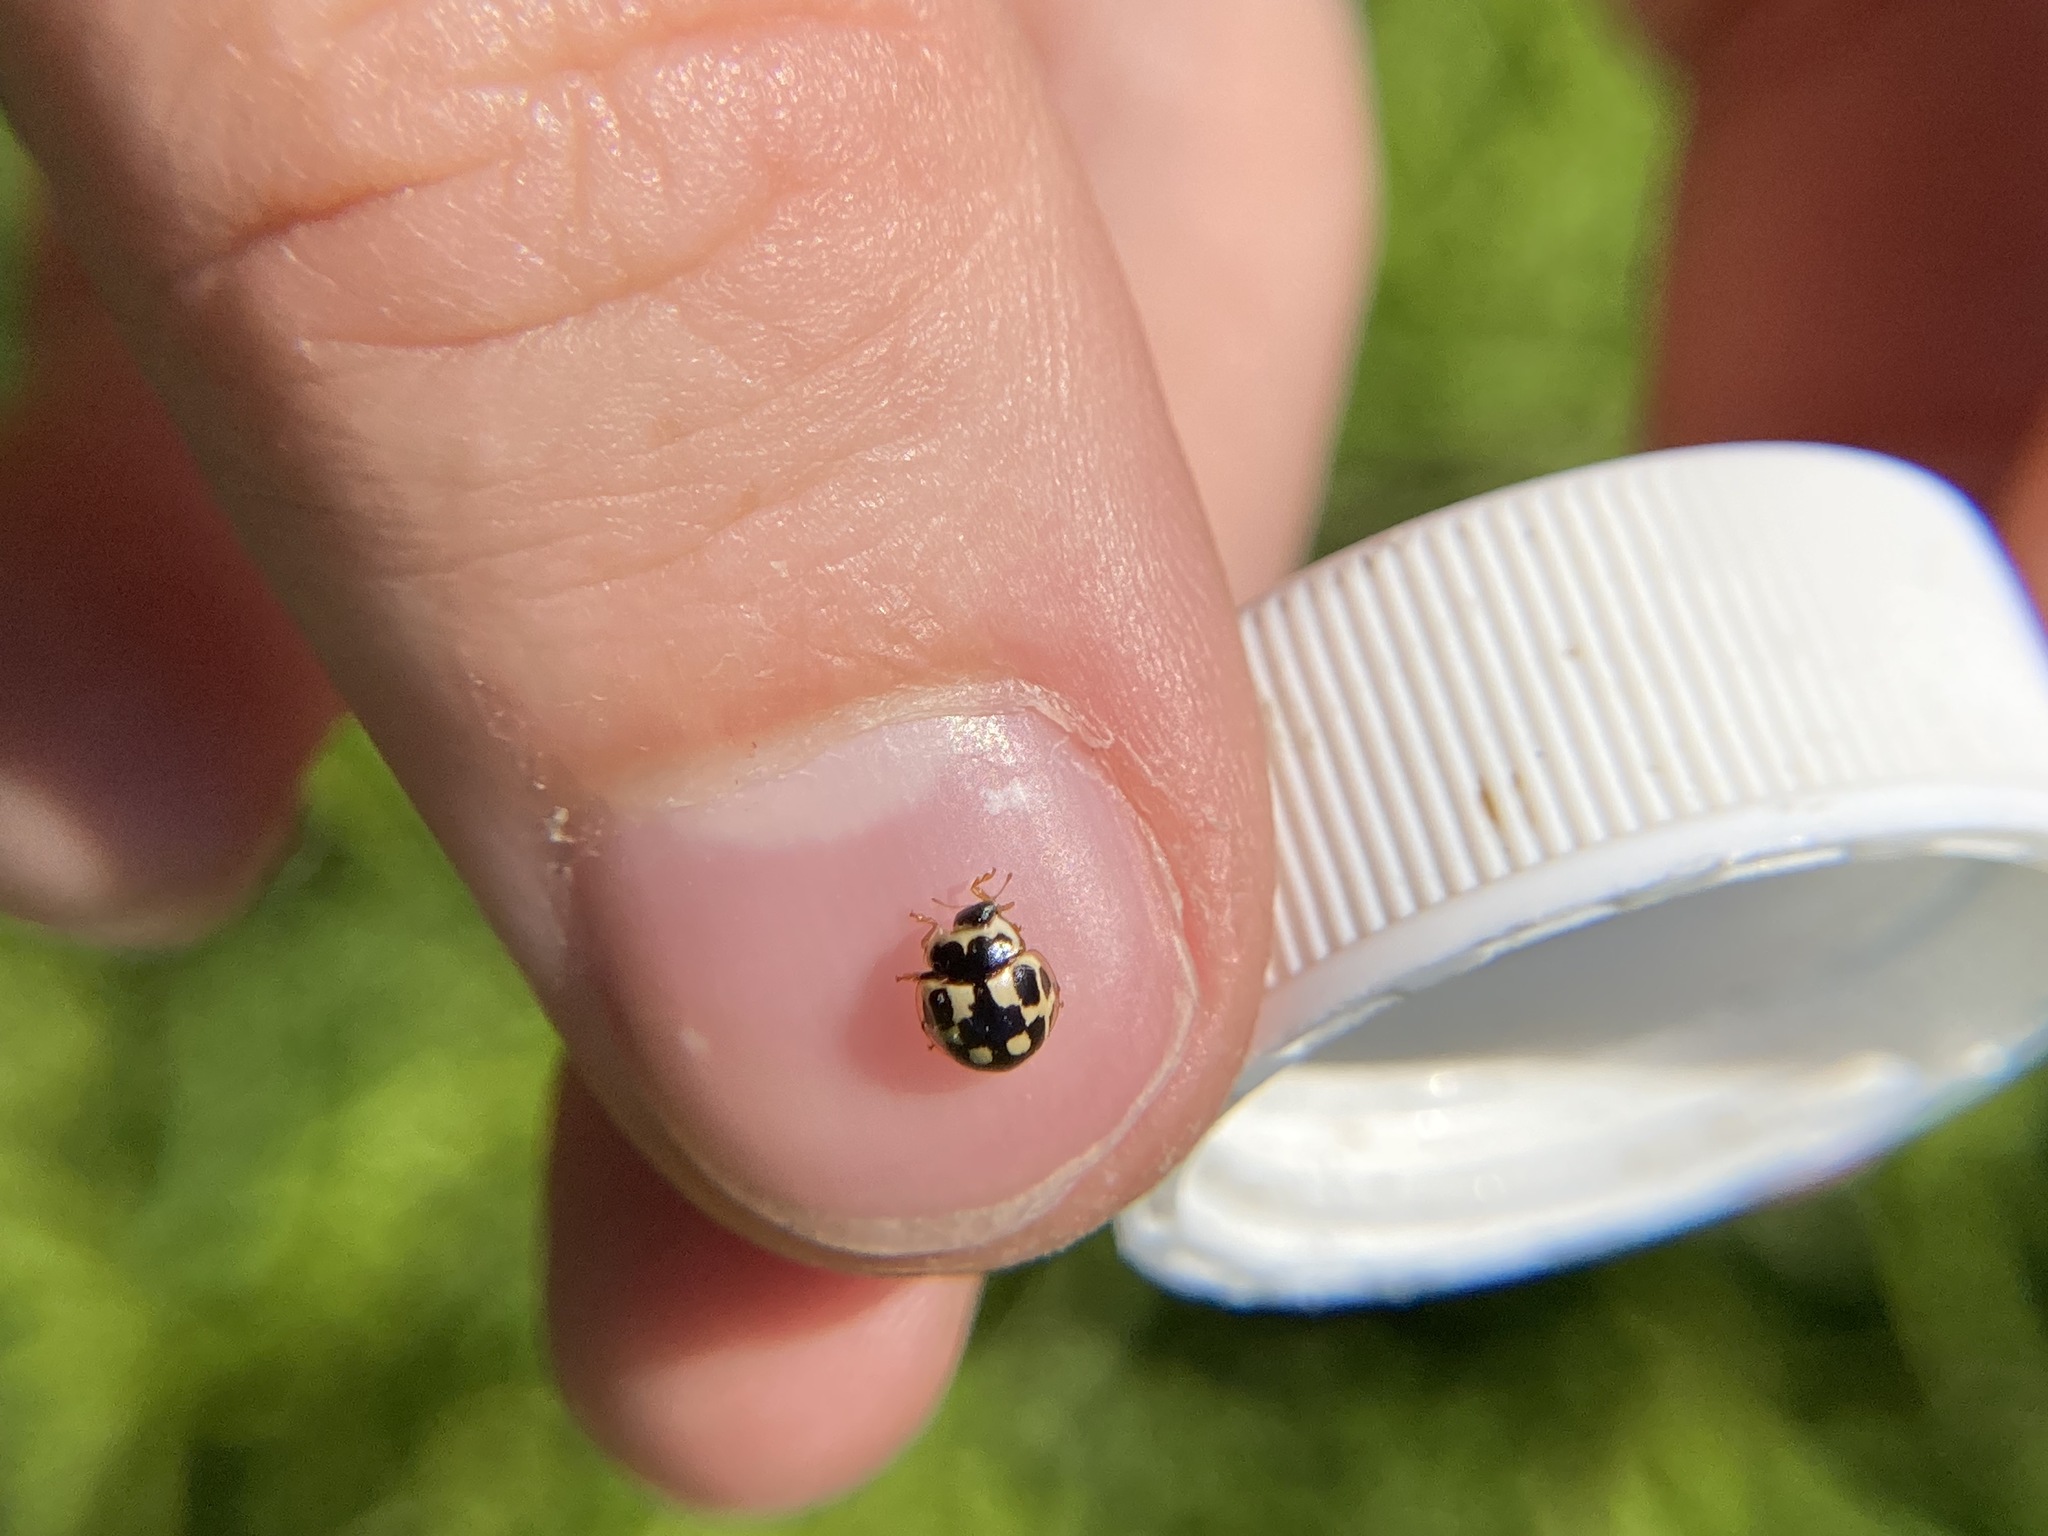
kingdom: Animalia
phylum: Arthropoda
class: Insecta
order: Coleoptera
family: Coccinellidae
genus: Propylaea
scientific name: Propylaea quatuordecimpunctata
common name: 14-spotted ladybird beetle
